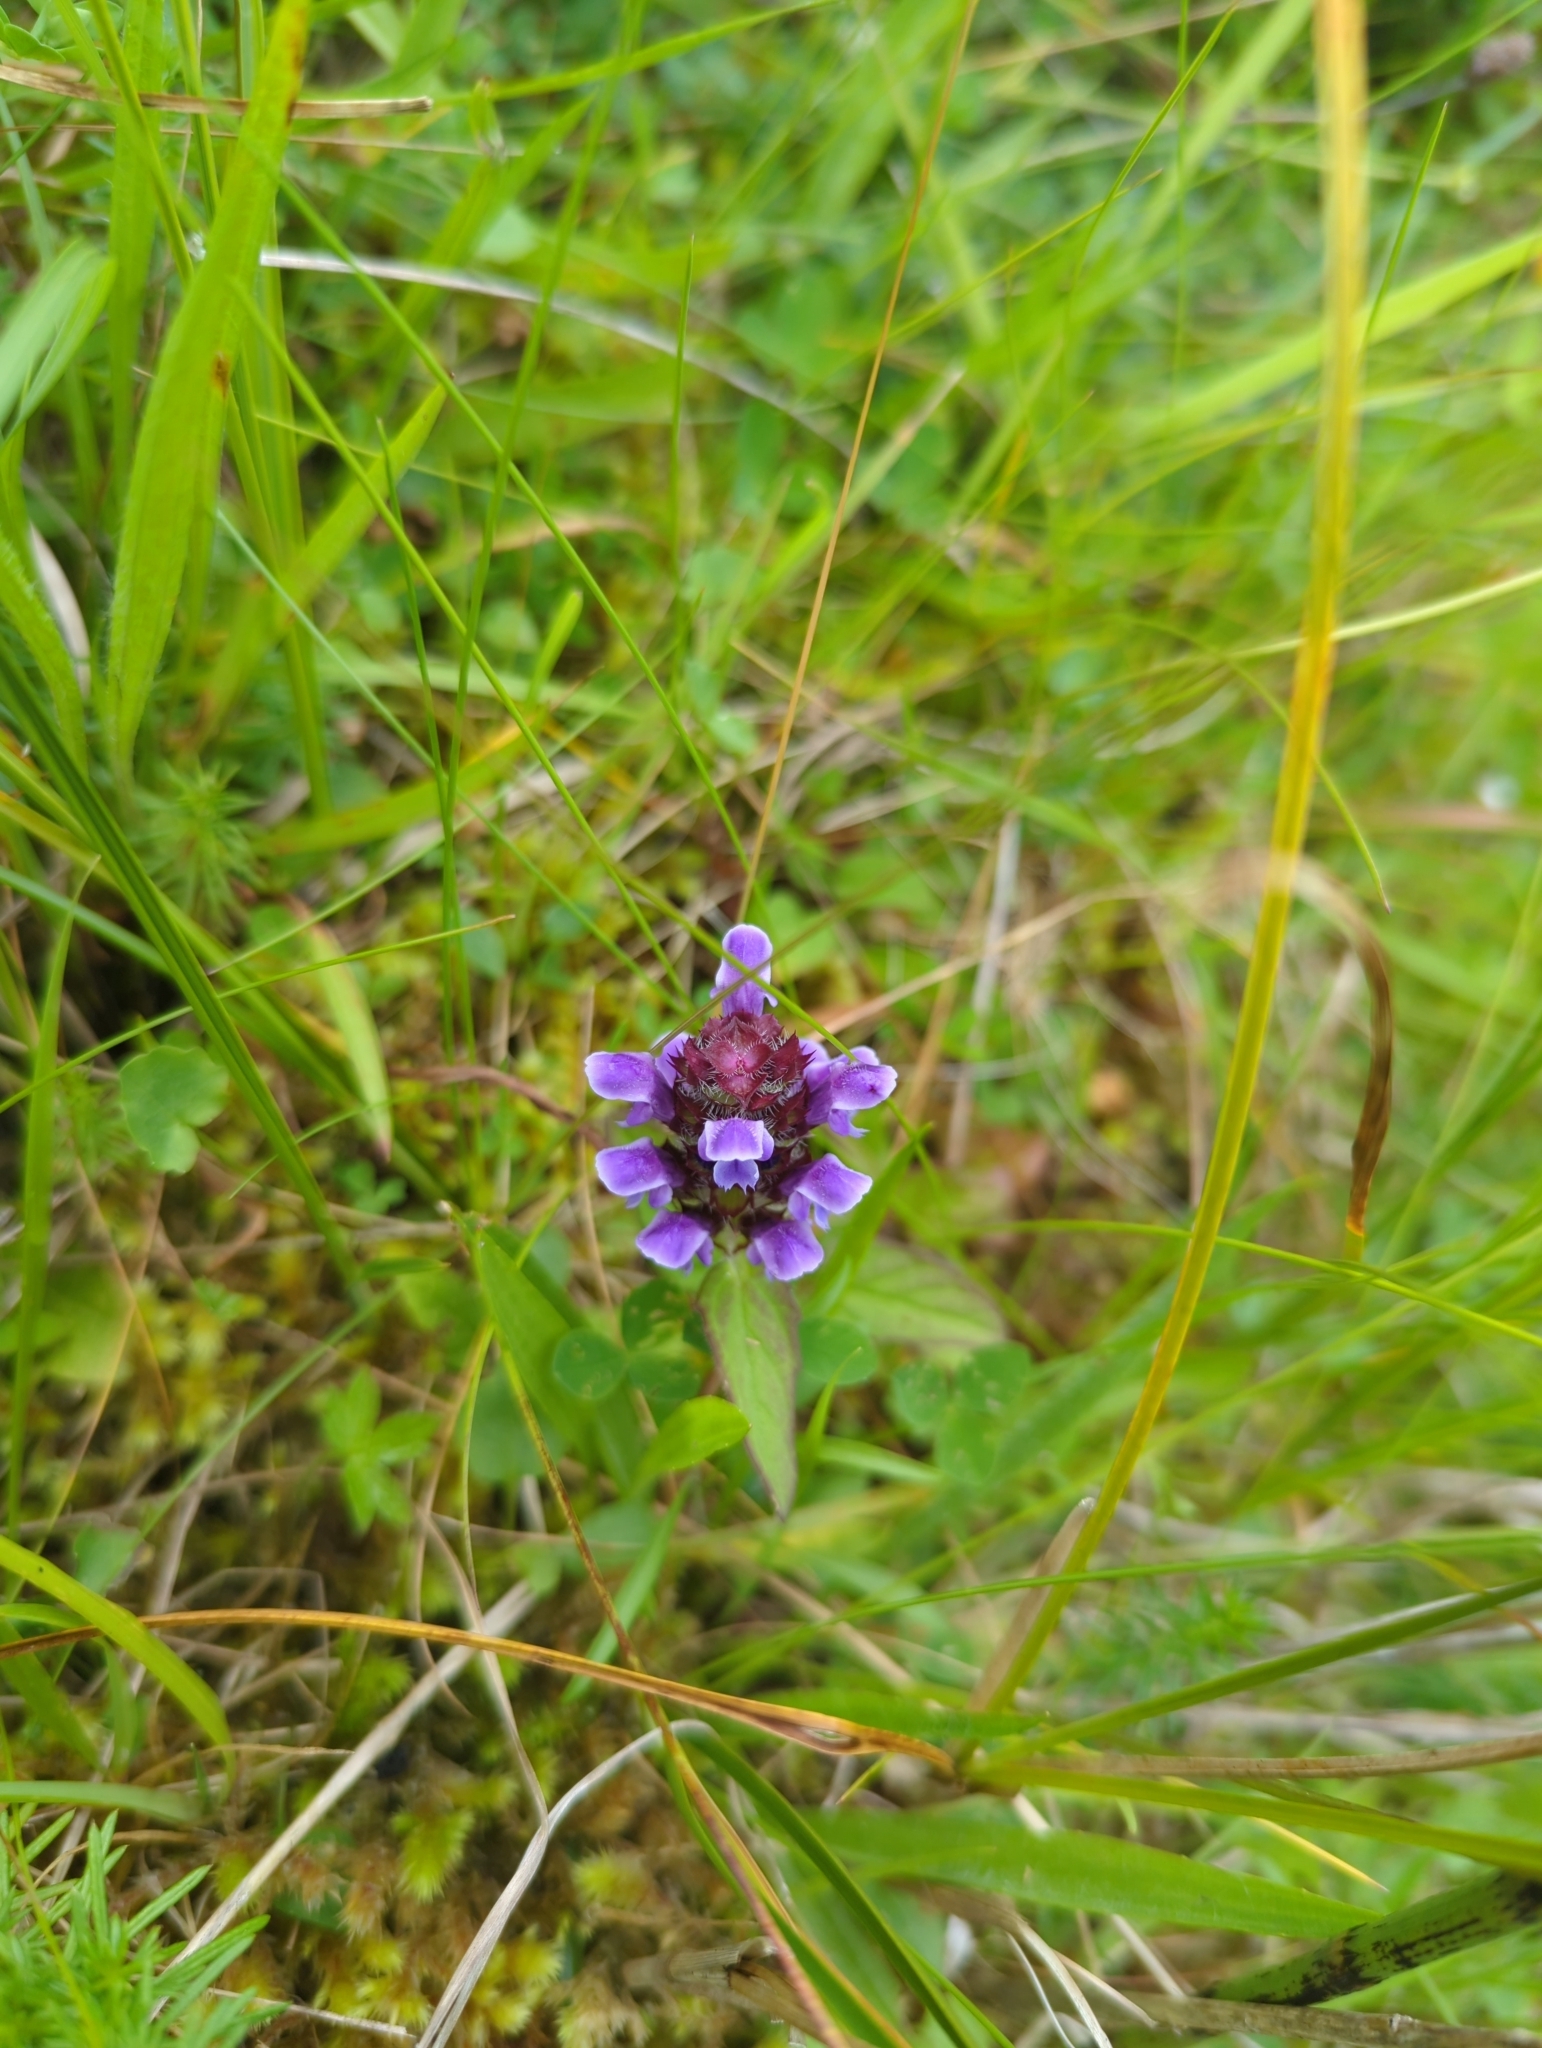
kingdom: Plantae
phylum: Tracheophyta
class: Magnoliopsida
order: Lamiales
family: Lamiaceae
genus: Prunella
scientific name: Prunella vulgaris
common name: Heal-all
